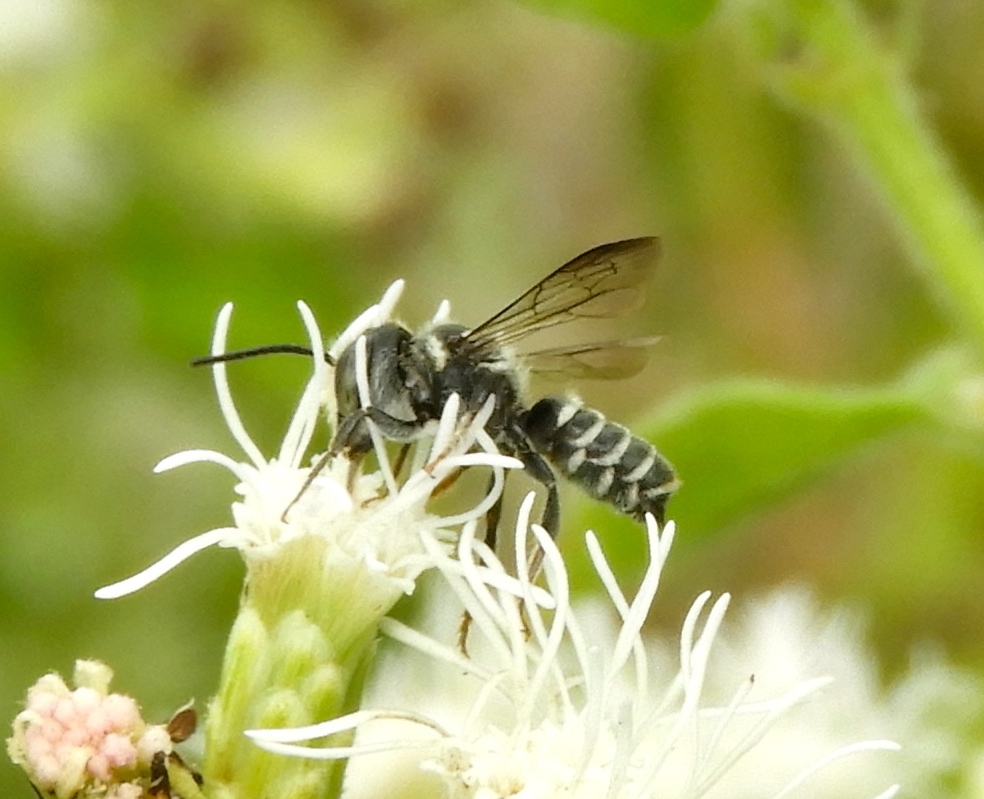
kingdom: Animalia
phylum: Arthropoda
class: Insecta
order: Hymenoptera
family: Megachilidae
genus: Megachile
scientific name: Megachile
